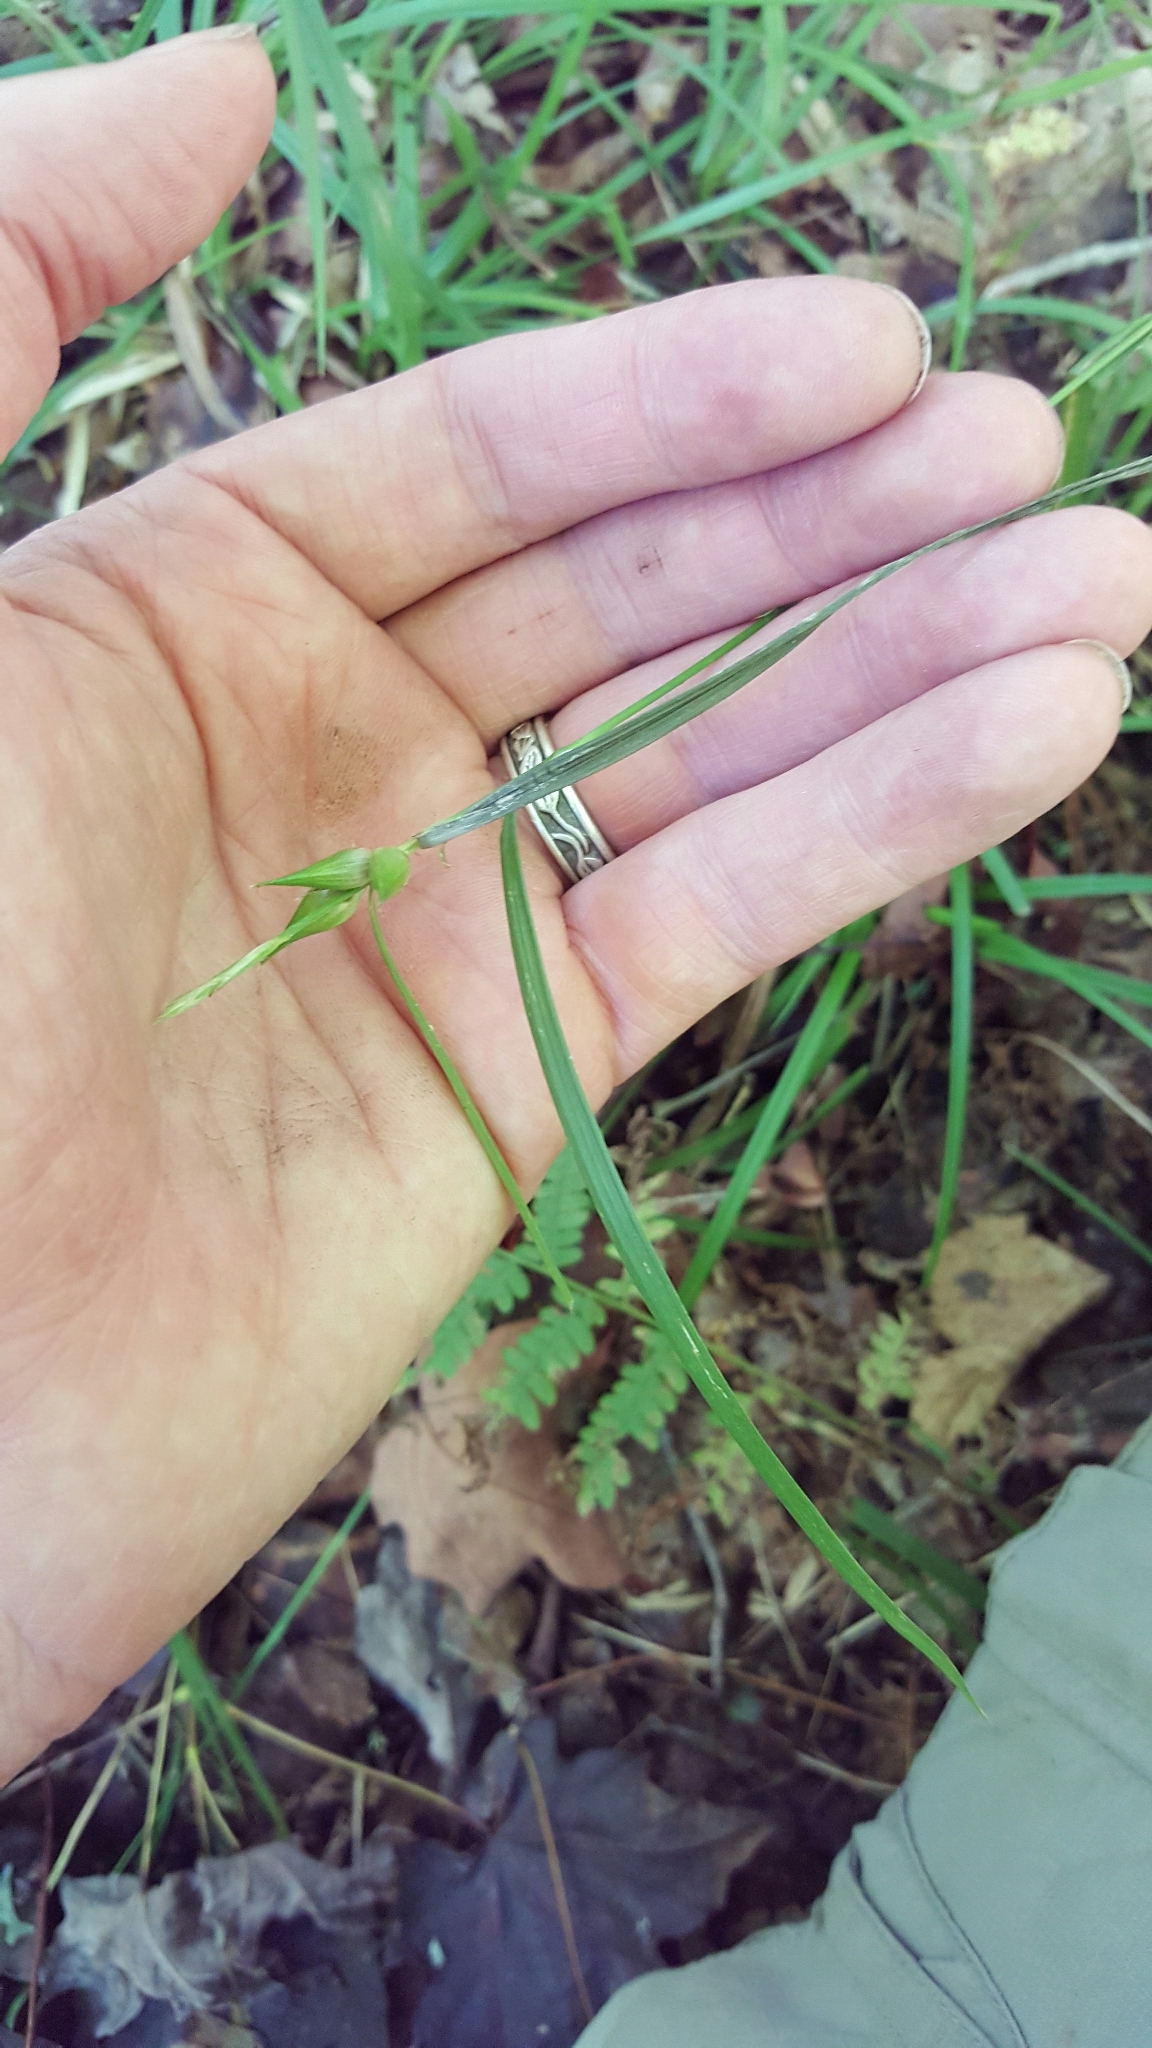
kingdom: Plantae
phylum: Tracheophyta
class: Liliopsida
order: Poales
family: Cyperaceae
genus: Carex
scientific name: Carex intumescens
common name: Greater bladder sedge
